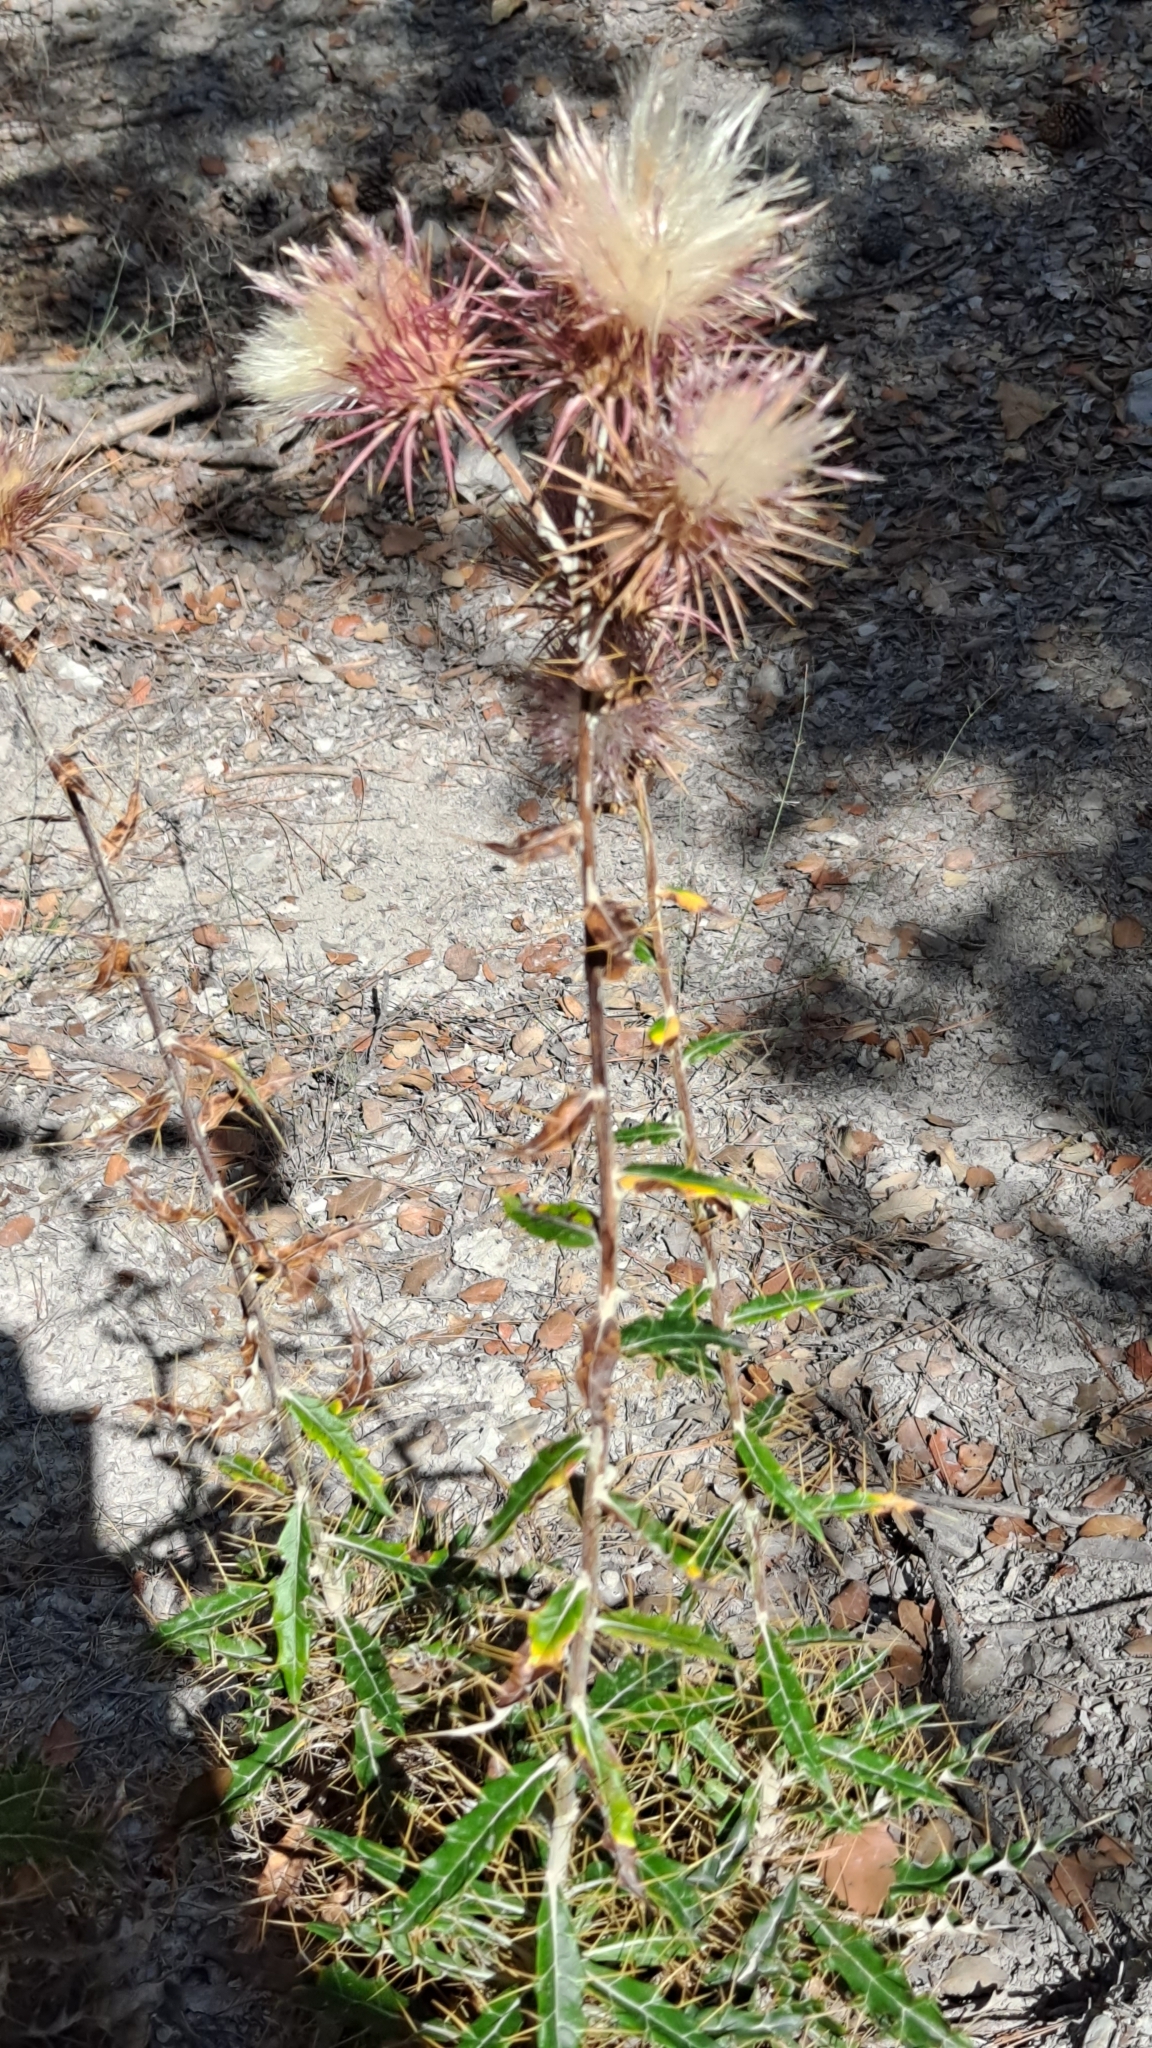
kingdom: Plantae
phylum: Tracheophyta
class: Magnoliopsida
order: Asterales
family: Asteraceae
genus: Ptilostemon
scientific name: Ptilostemon hispanicus
